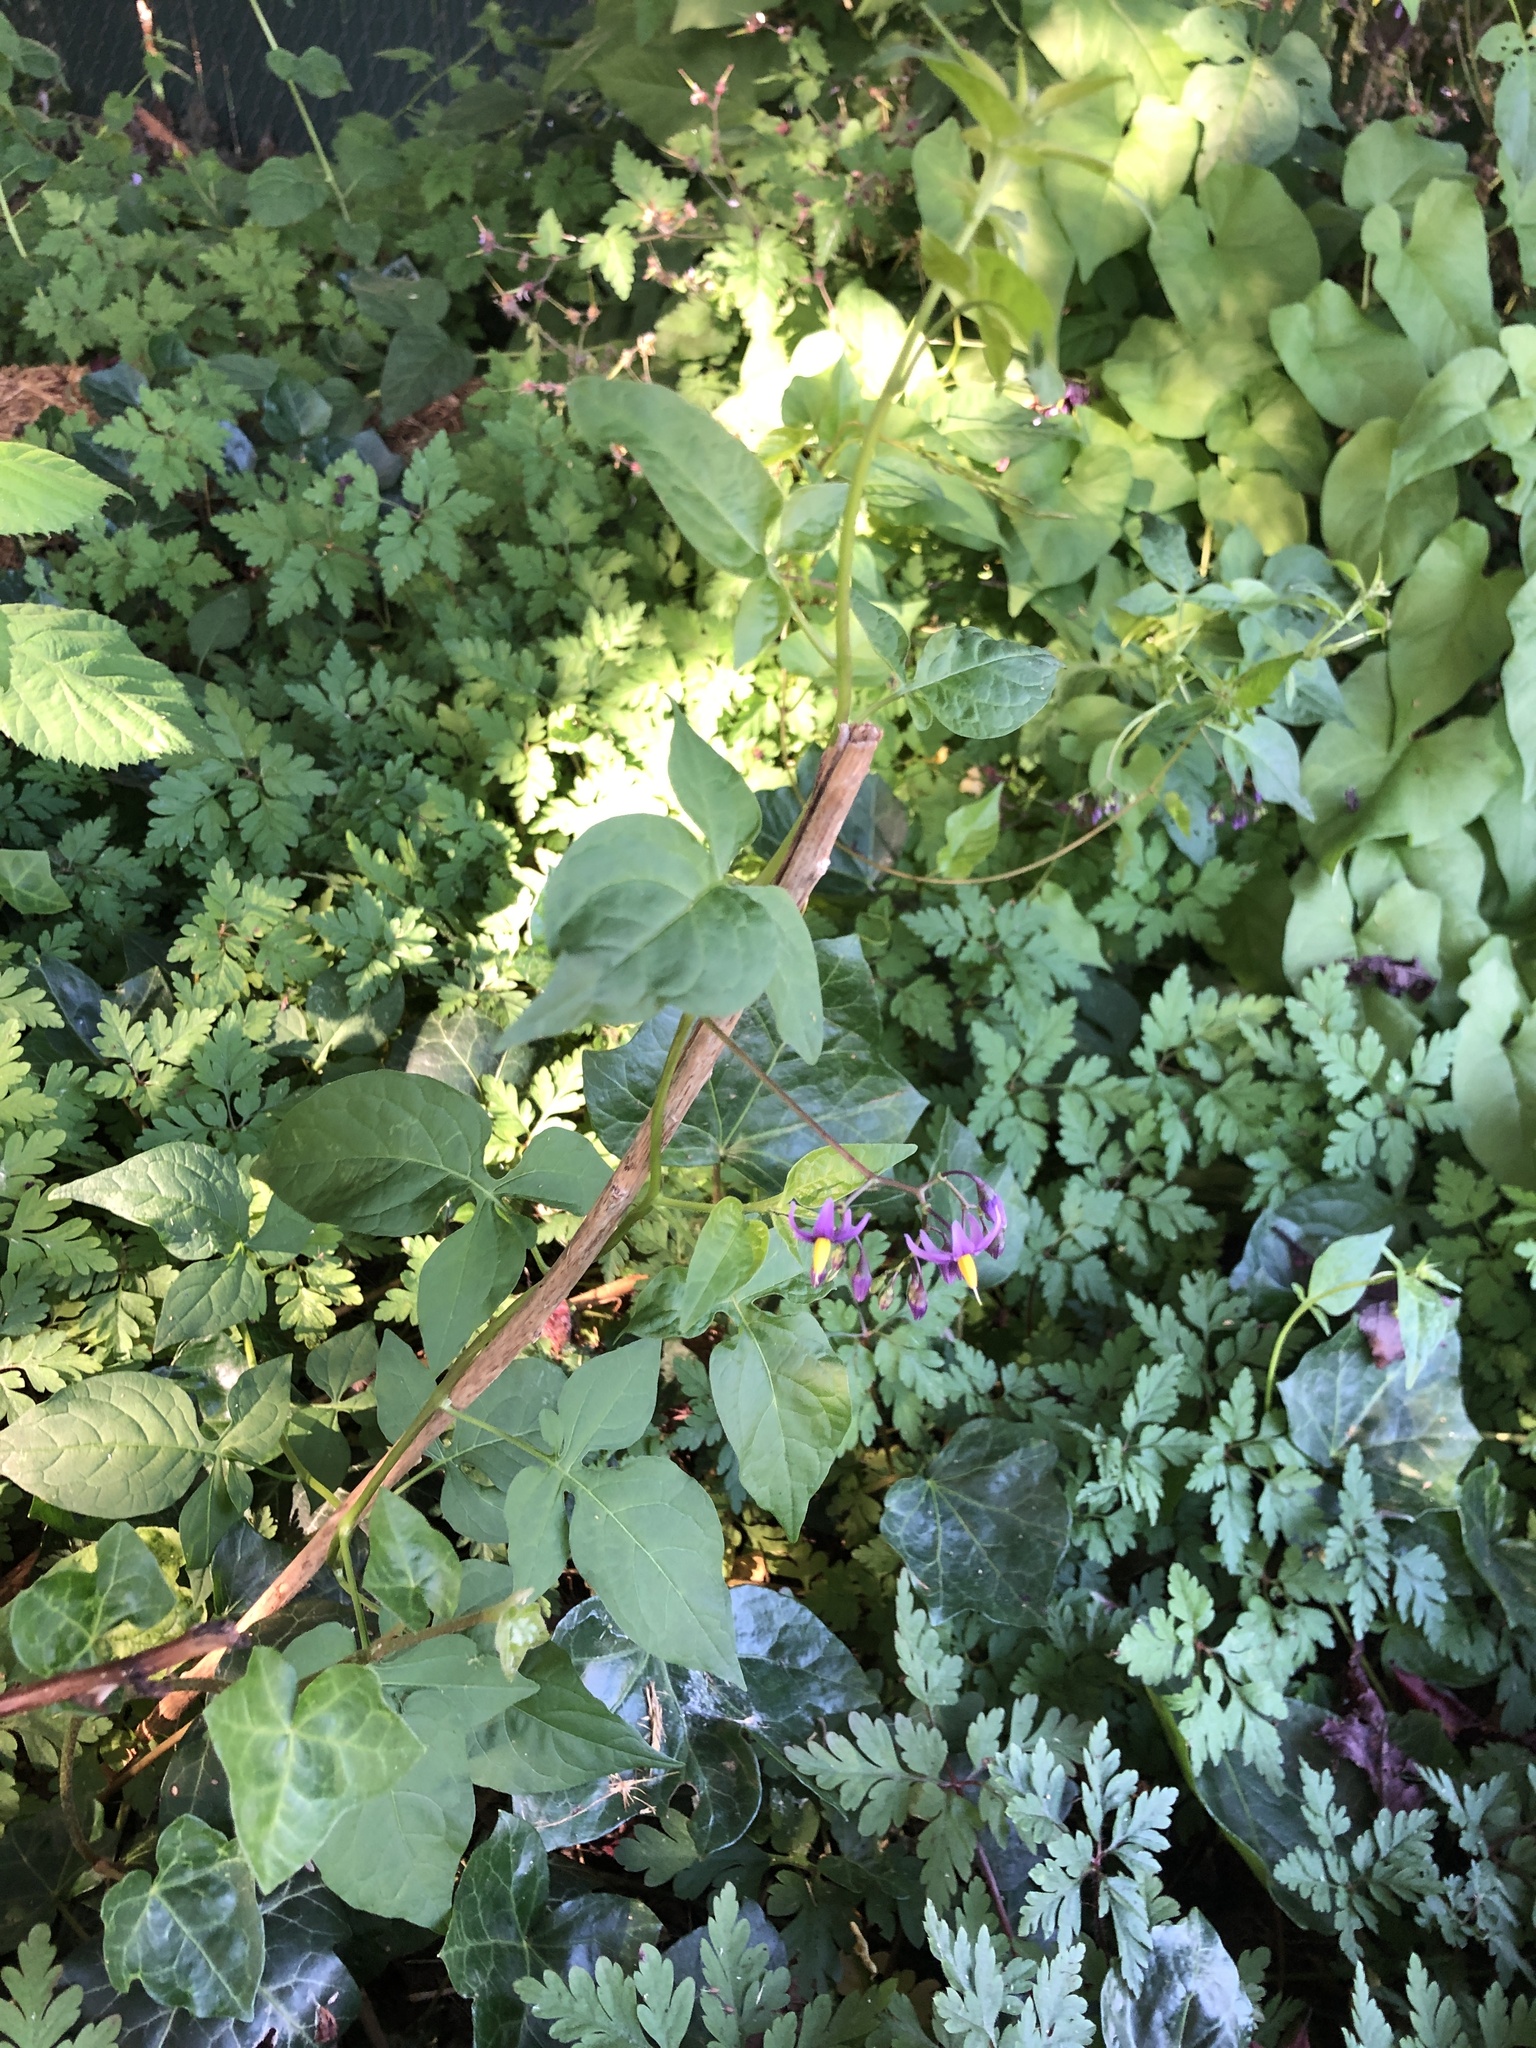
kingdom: Plantae
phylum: Tracheophyta
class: Magnoliopsida
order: Solanales
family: Solanaceae
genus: Solanum
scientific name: Solanum dulcamara
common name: Climbing nightshade
